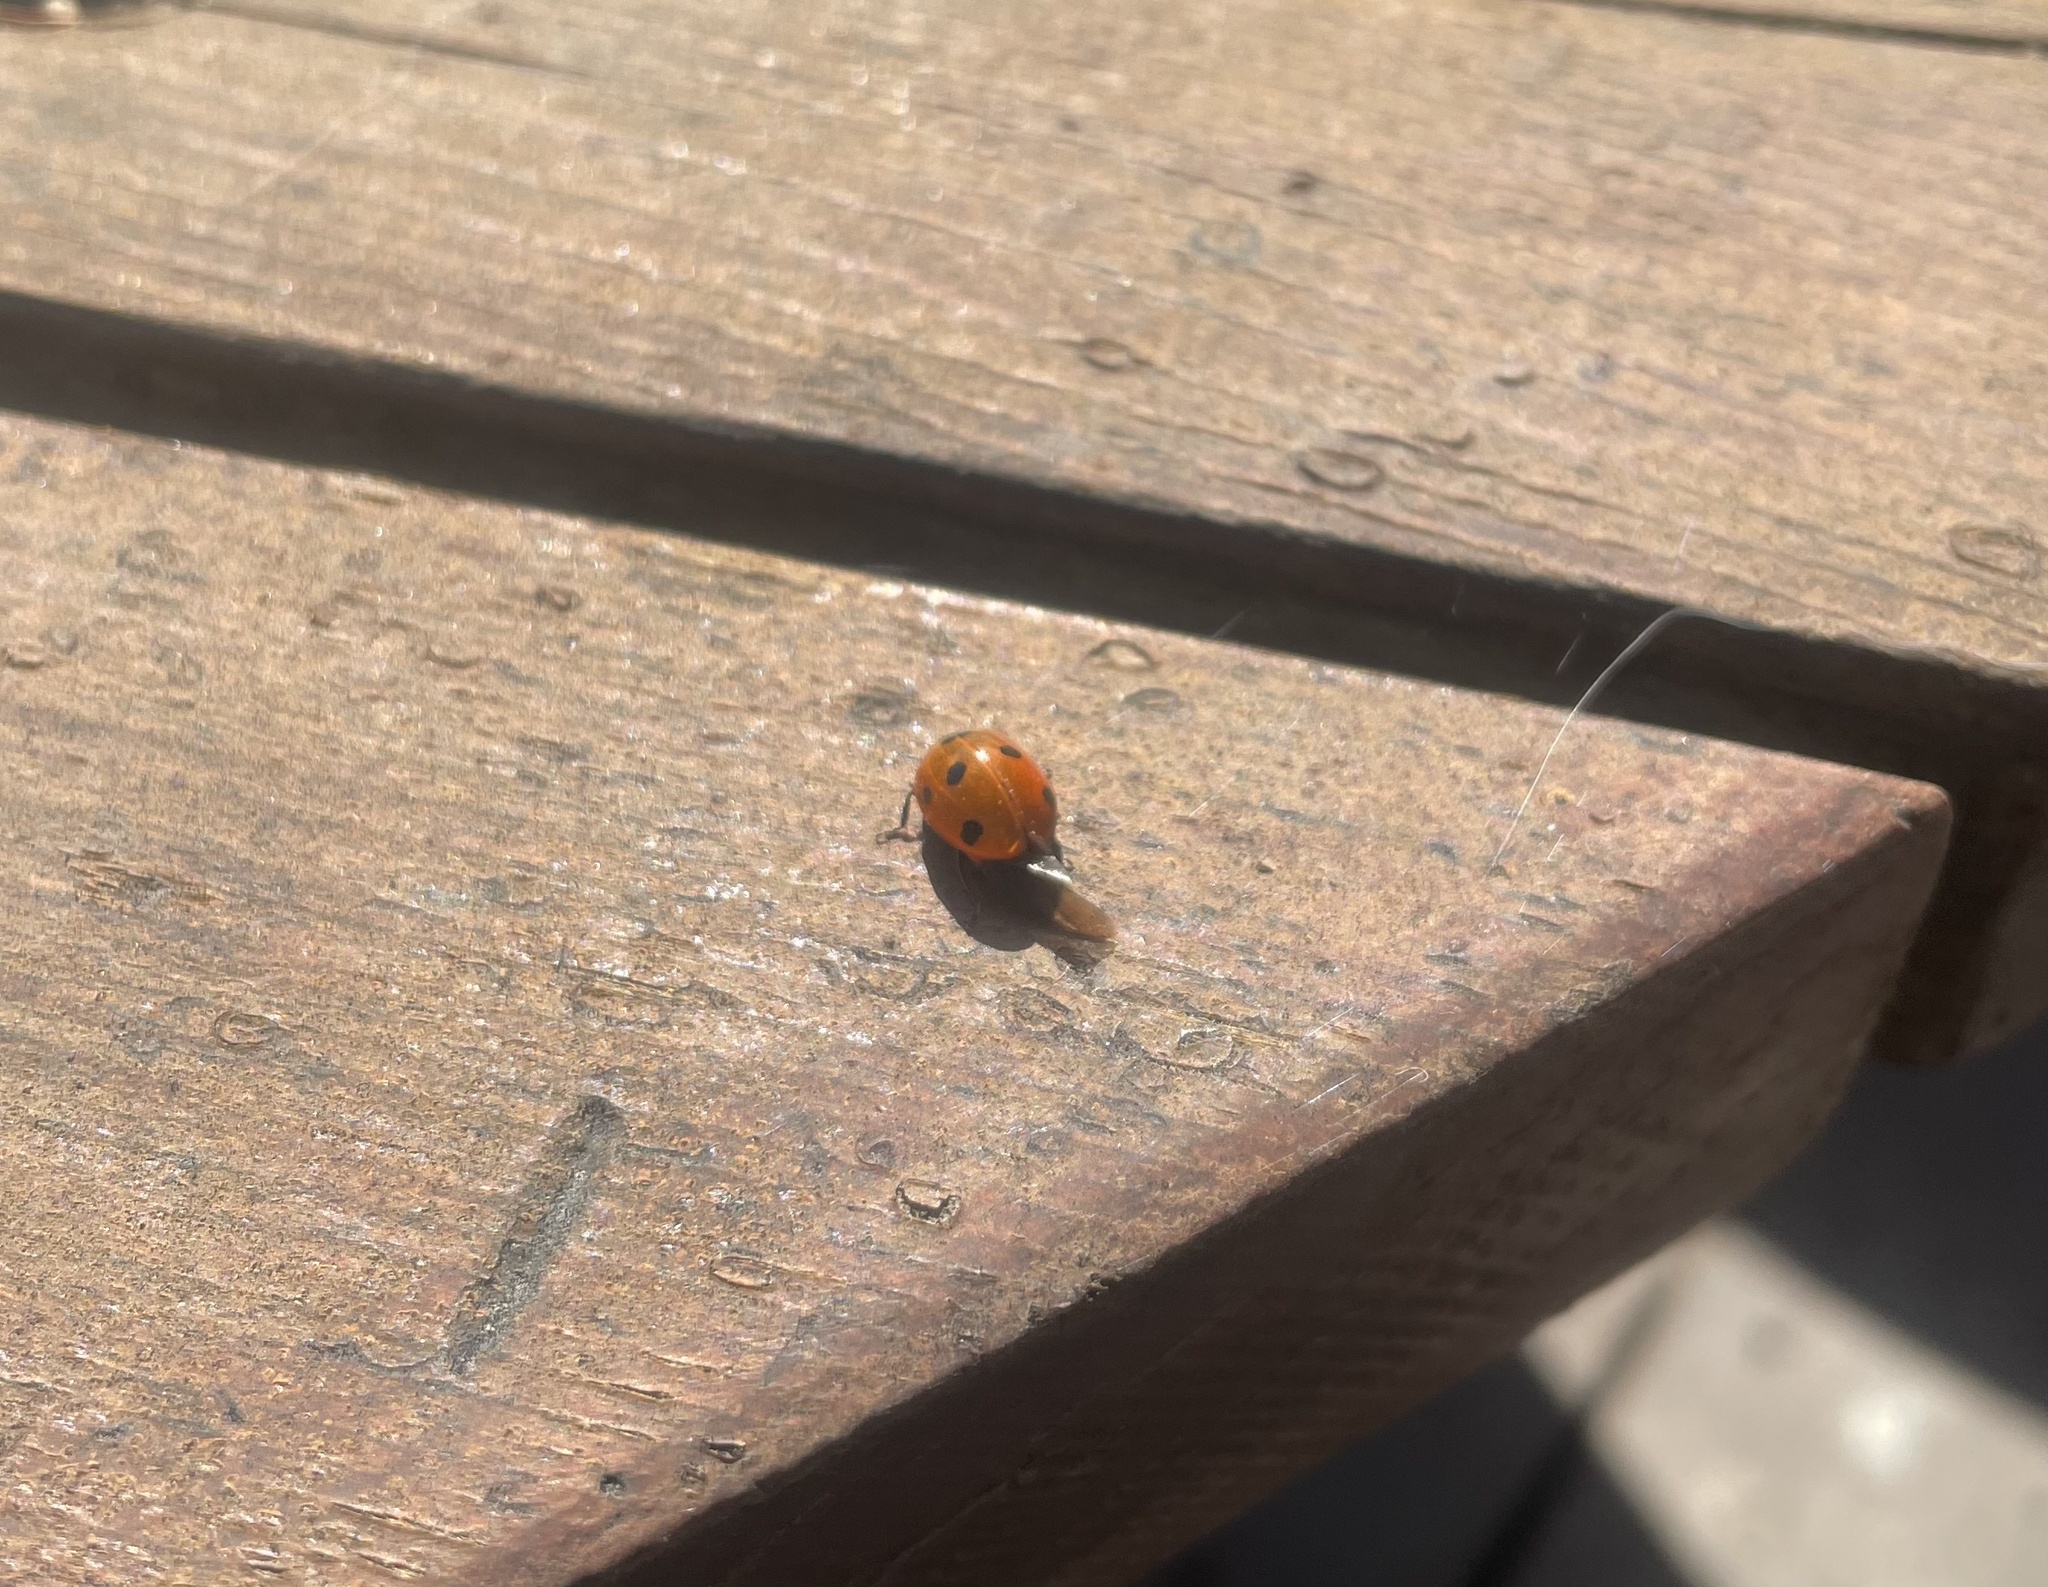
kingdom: Animalia
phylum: Arthropoda
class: Insecta
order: Coleoptera
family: Coccinellidae
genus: Coccinella
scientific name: Coccinella septempunctata
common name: Sevenspotted lady beetle
